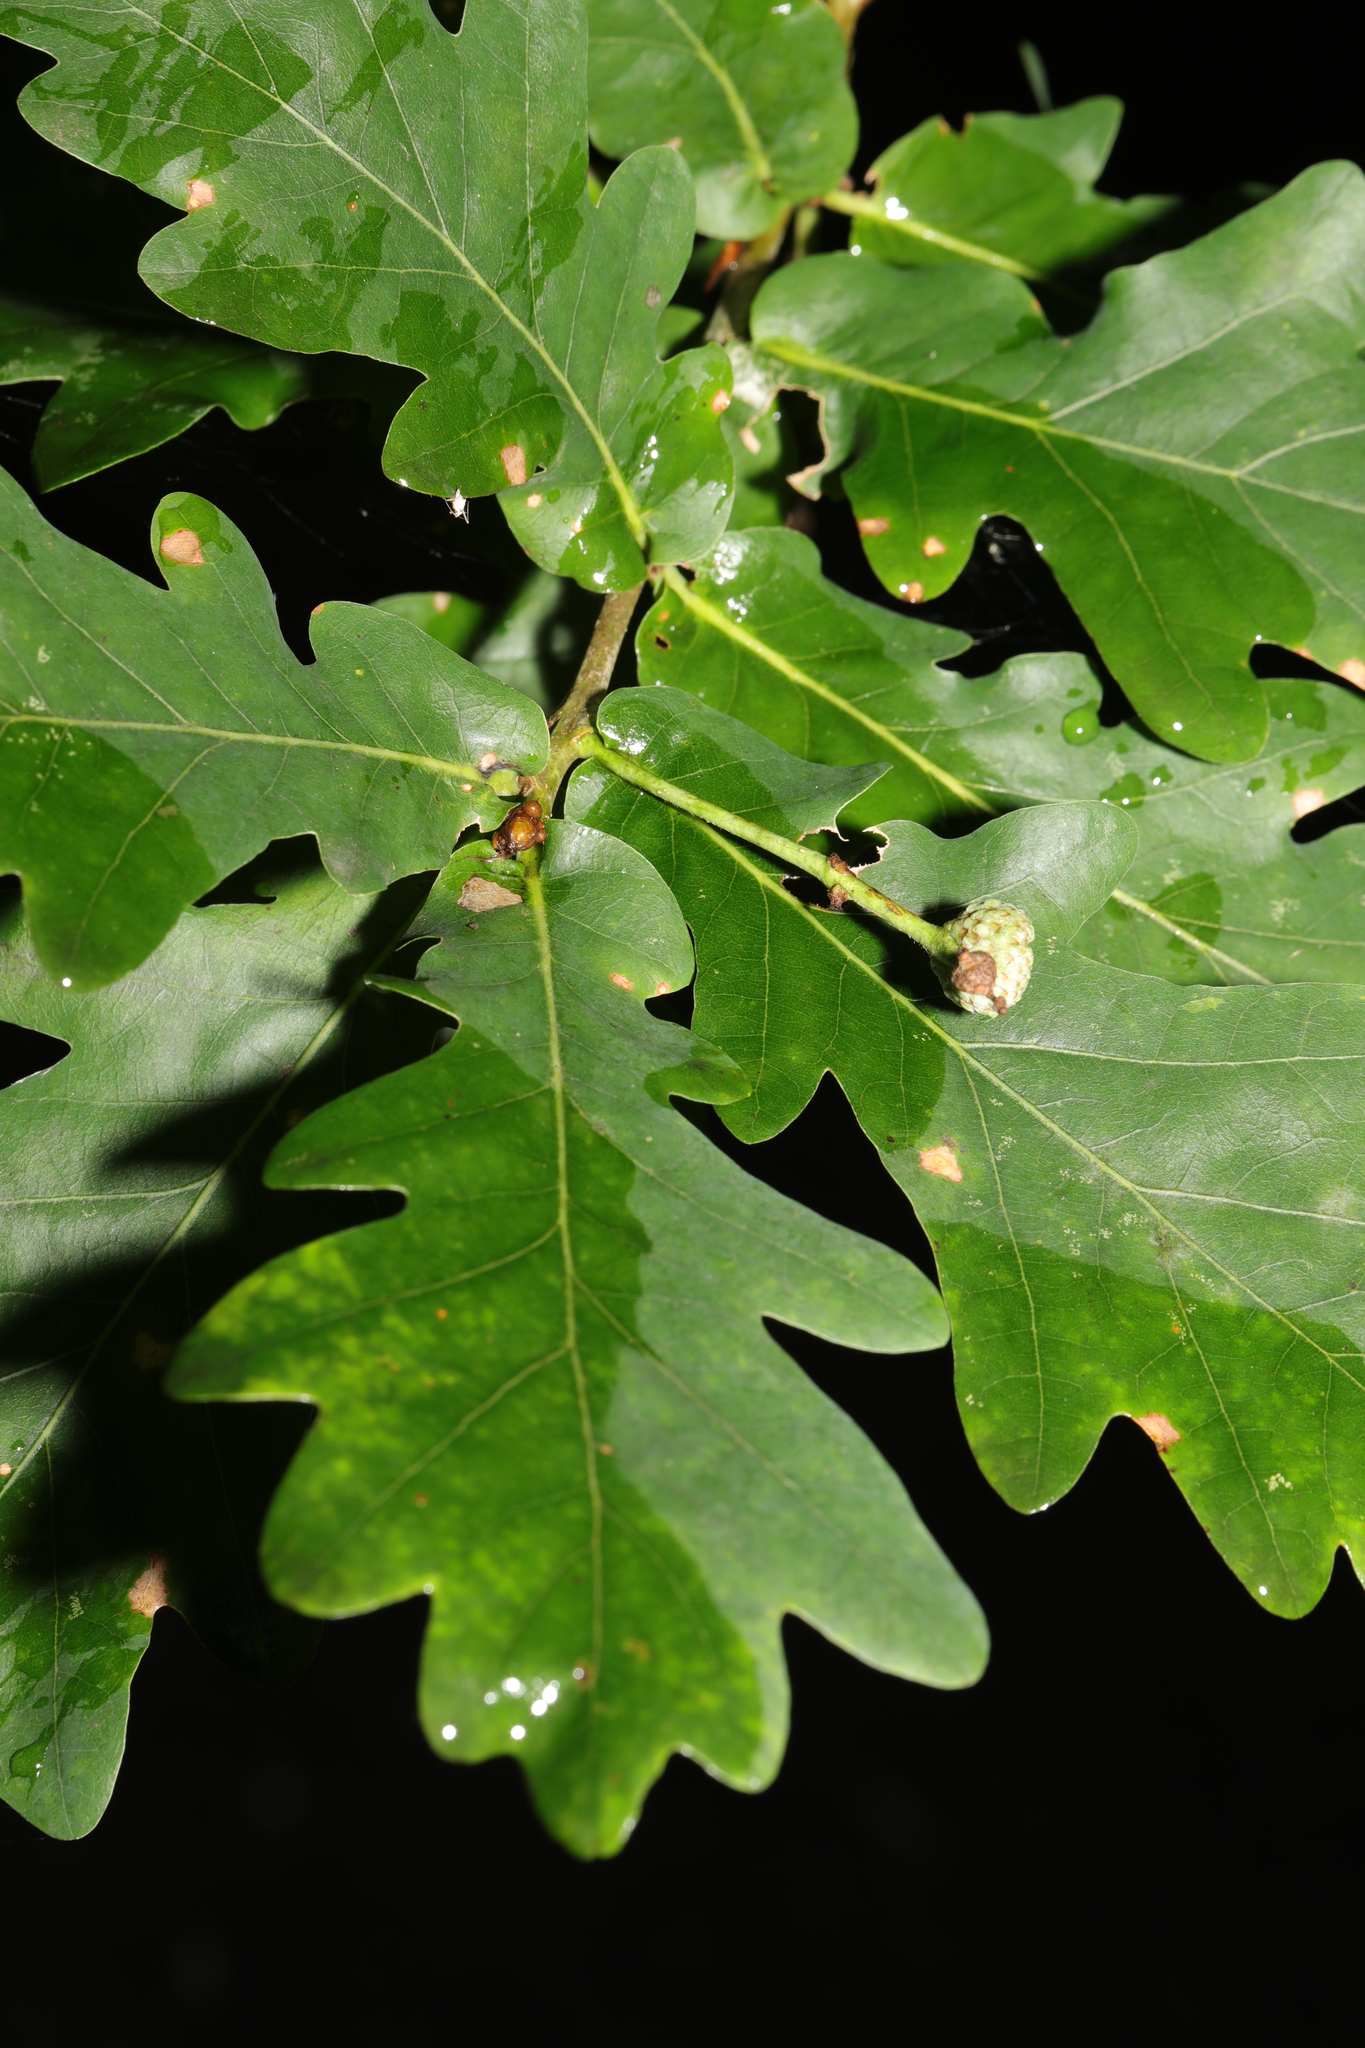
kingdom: Plantae
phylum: Tracheophyta
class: Magnoliopsida
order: Fagales
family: Fagaceae
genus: Quercus
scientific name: Quercus robur
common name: Pedunculate oak
